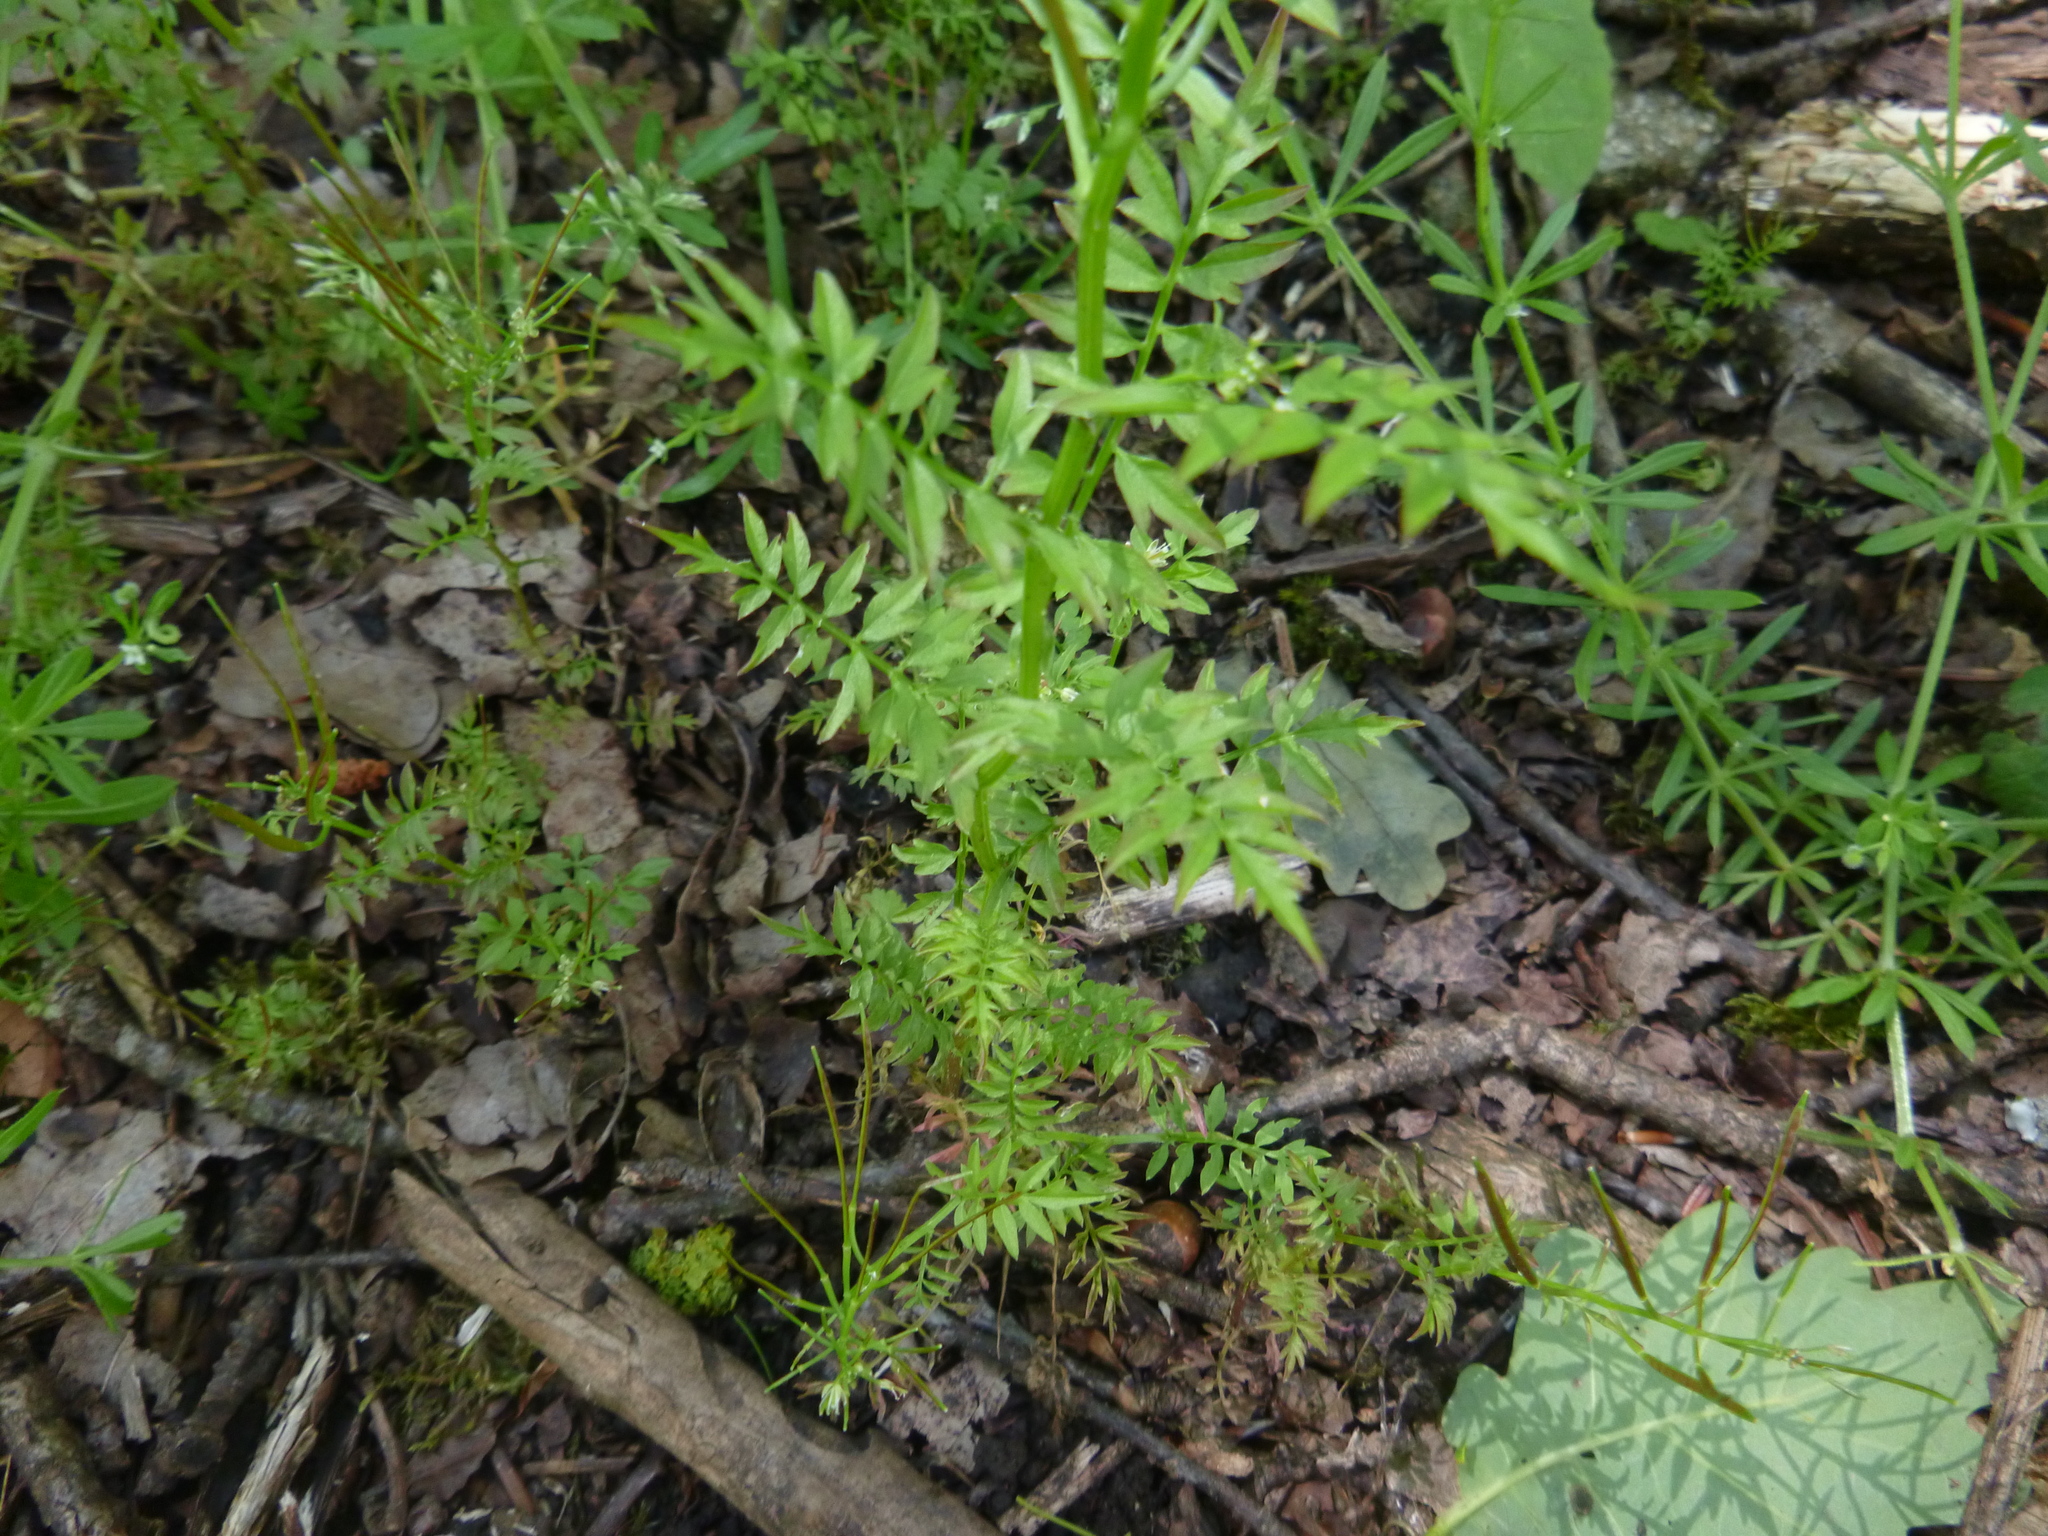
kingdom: Plantae
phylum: Tracheophyta
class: Magnoliopsida
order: Brassicales
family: Brassicaceae
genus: Cardamine
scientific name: Cardamine impatiens
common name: Narrow-leaved bitter-cress
